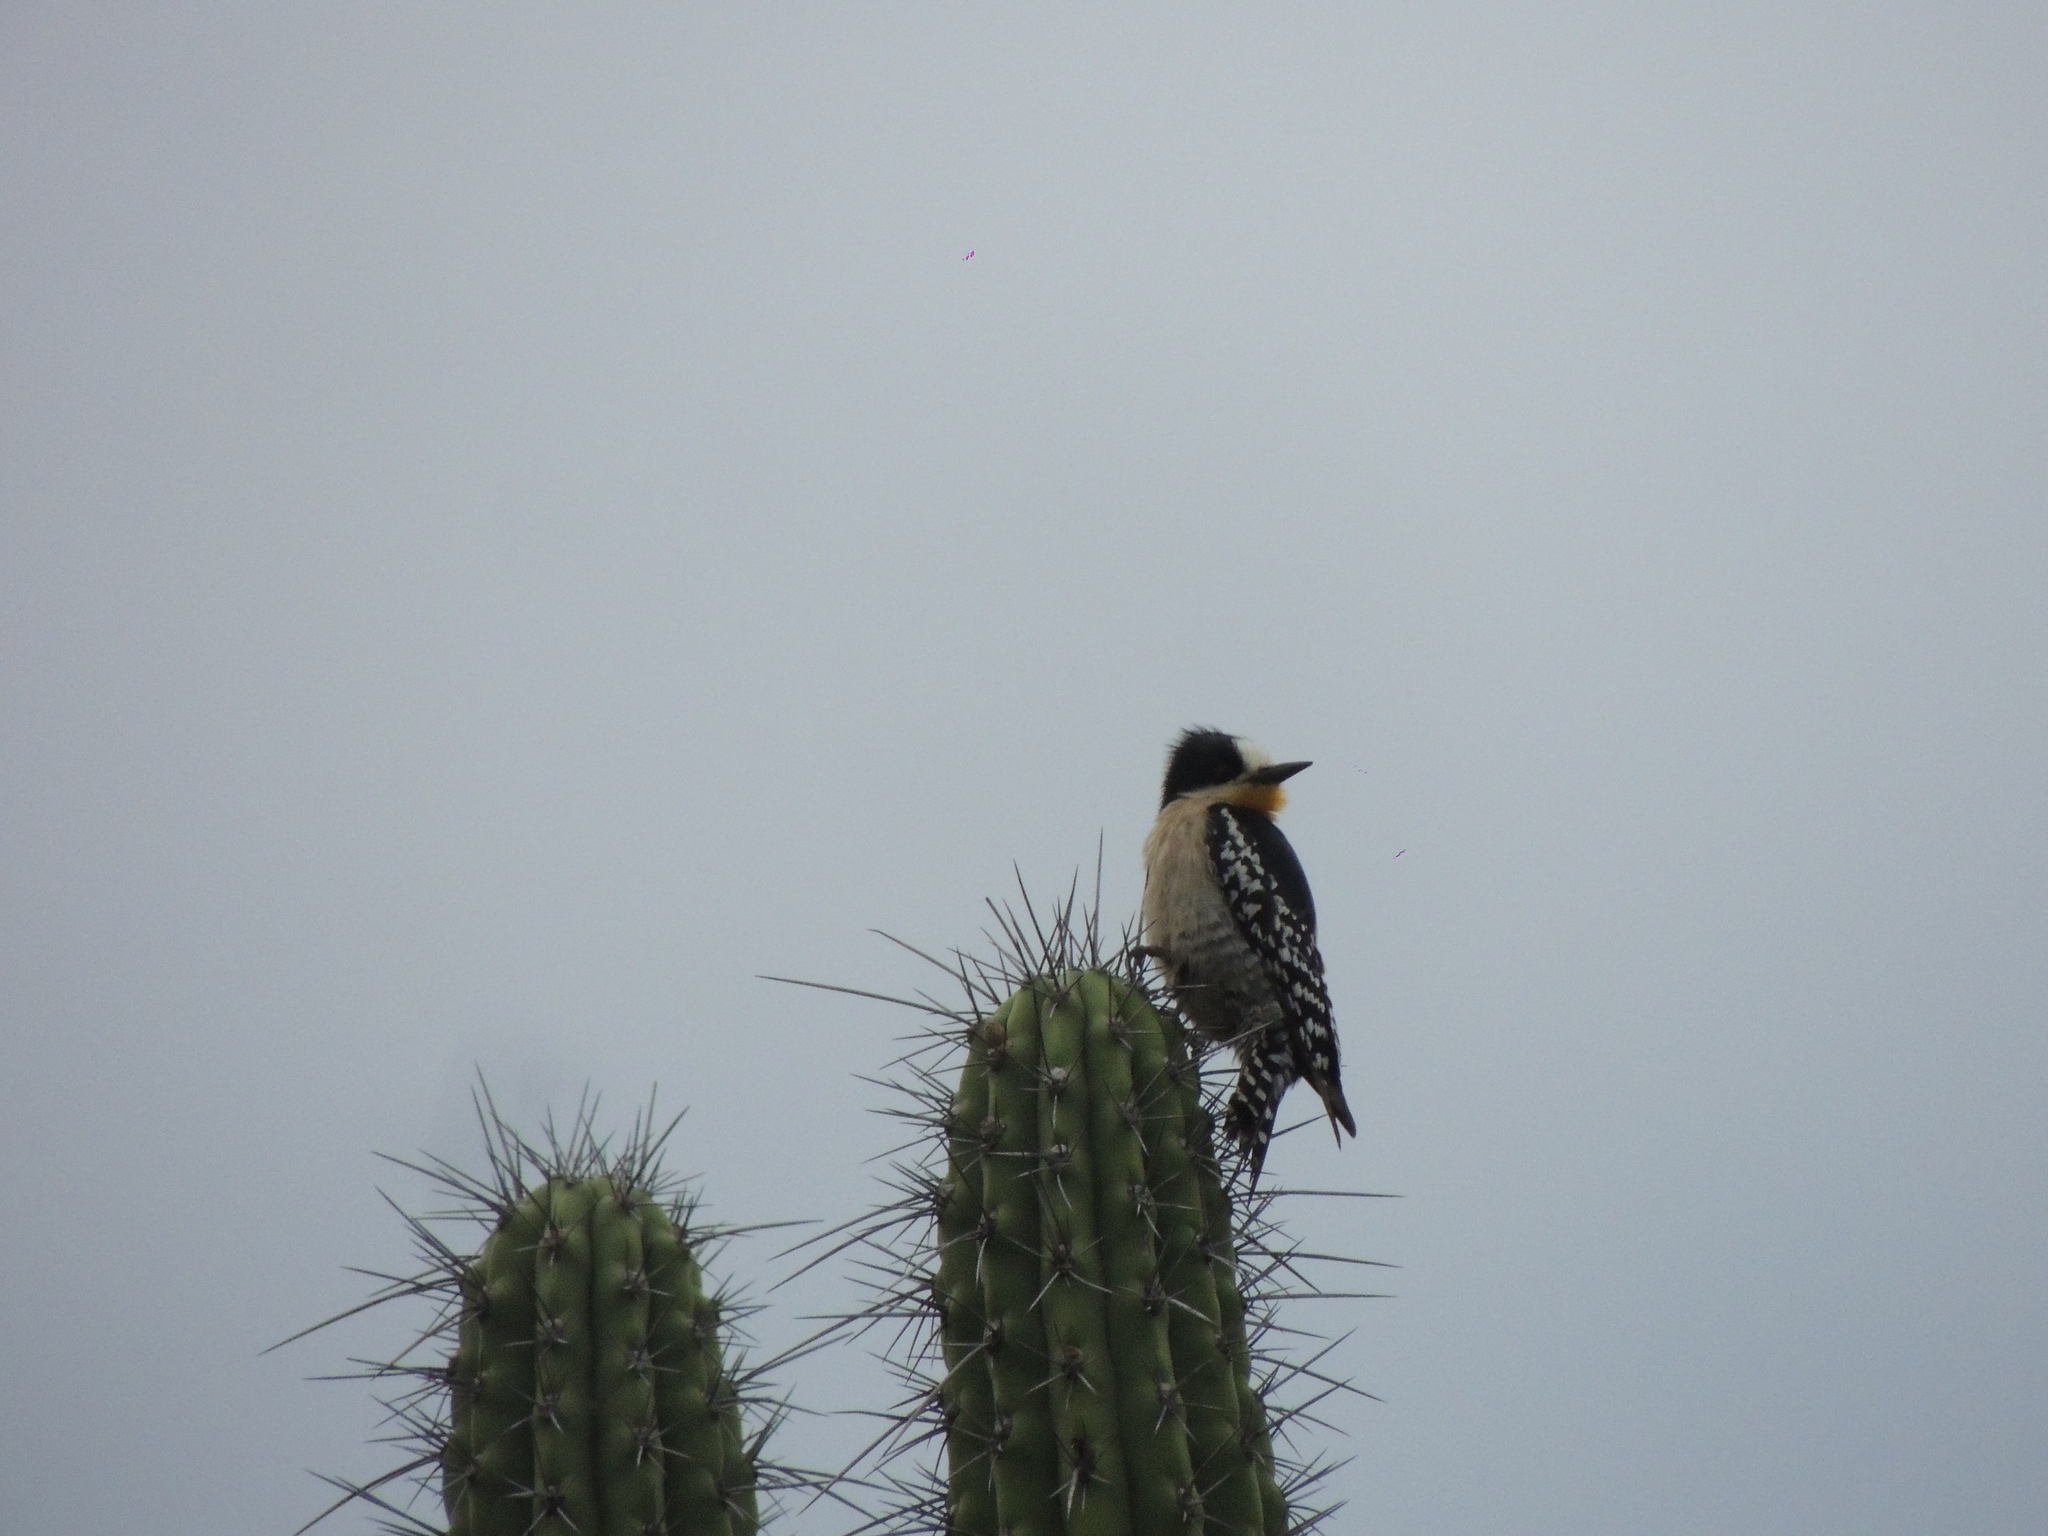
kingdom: Animalia
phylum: Chordata
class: Aves
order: Piciformes
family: Picidae
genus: Melanerpes
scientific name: Melanerpes cactorum
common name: White-fronted woodpecker
